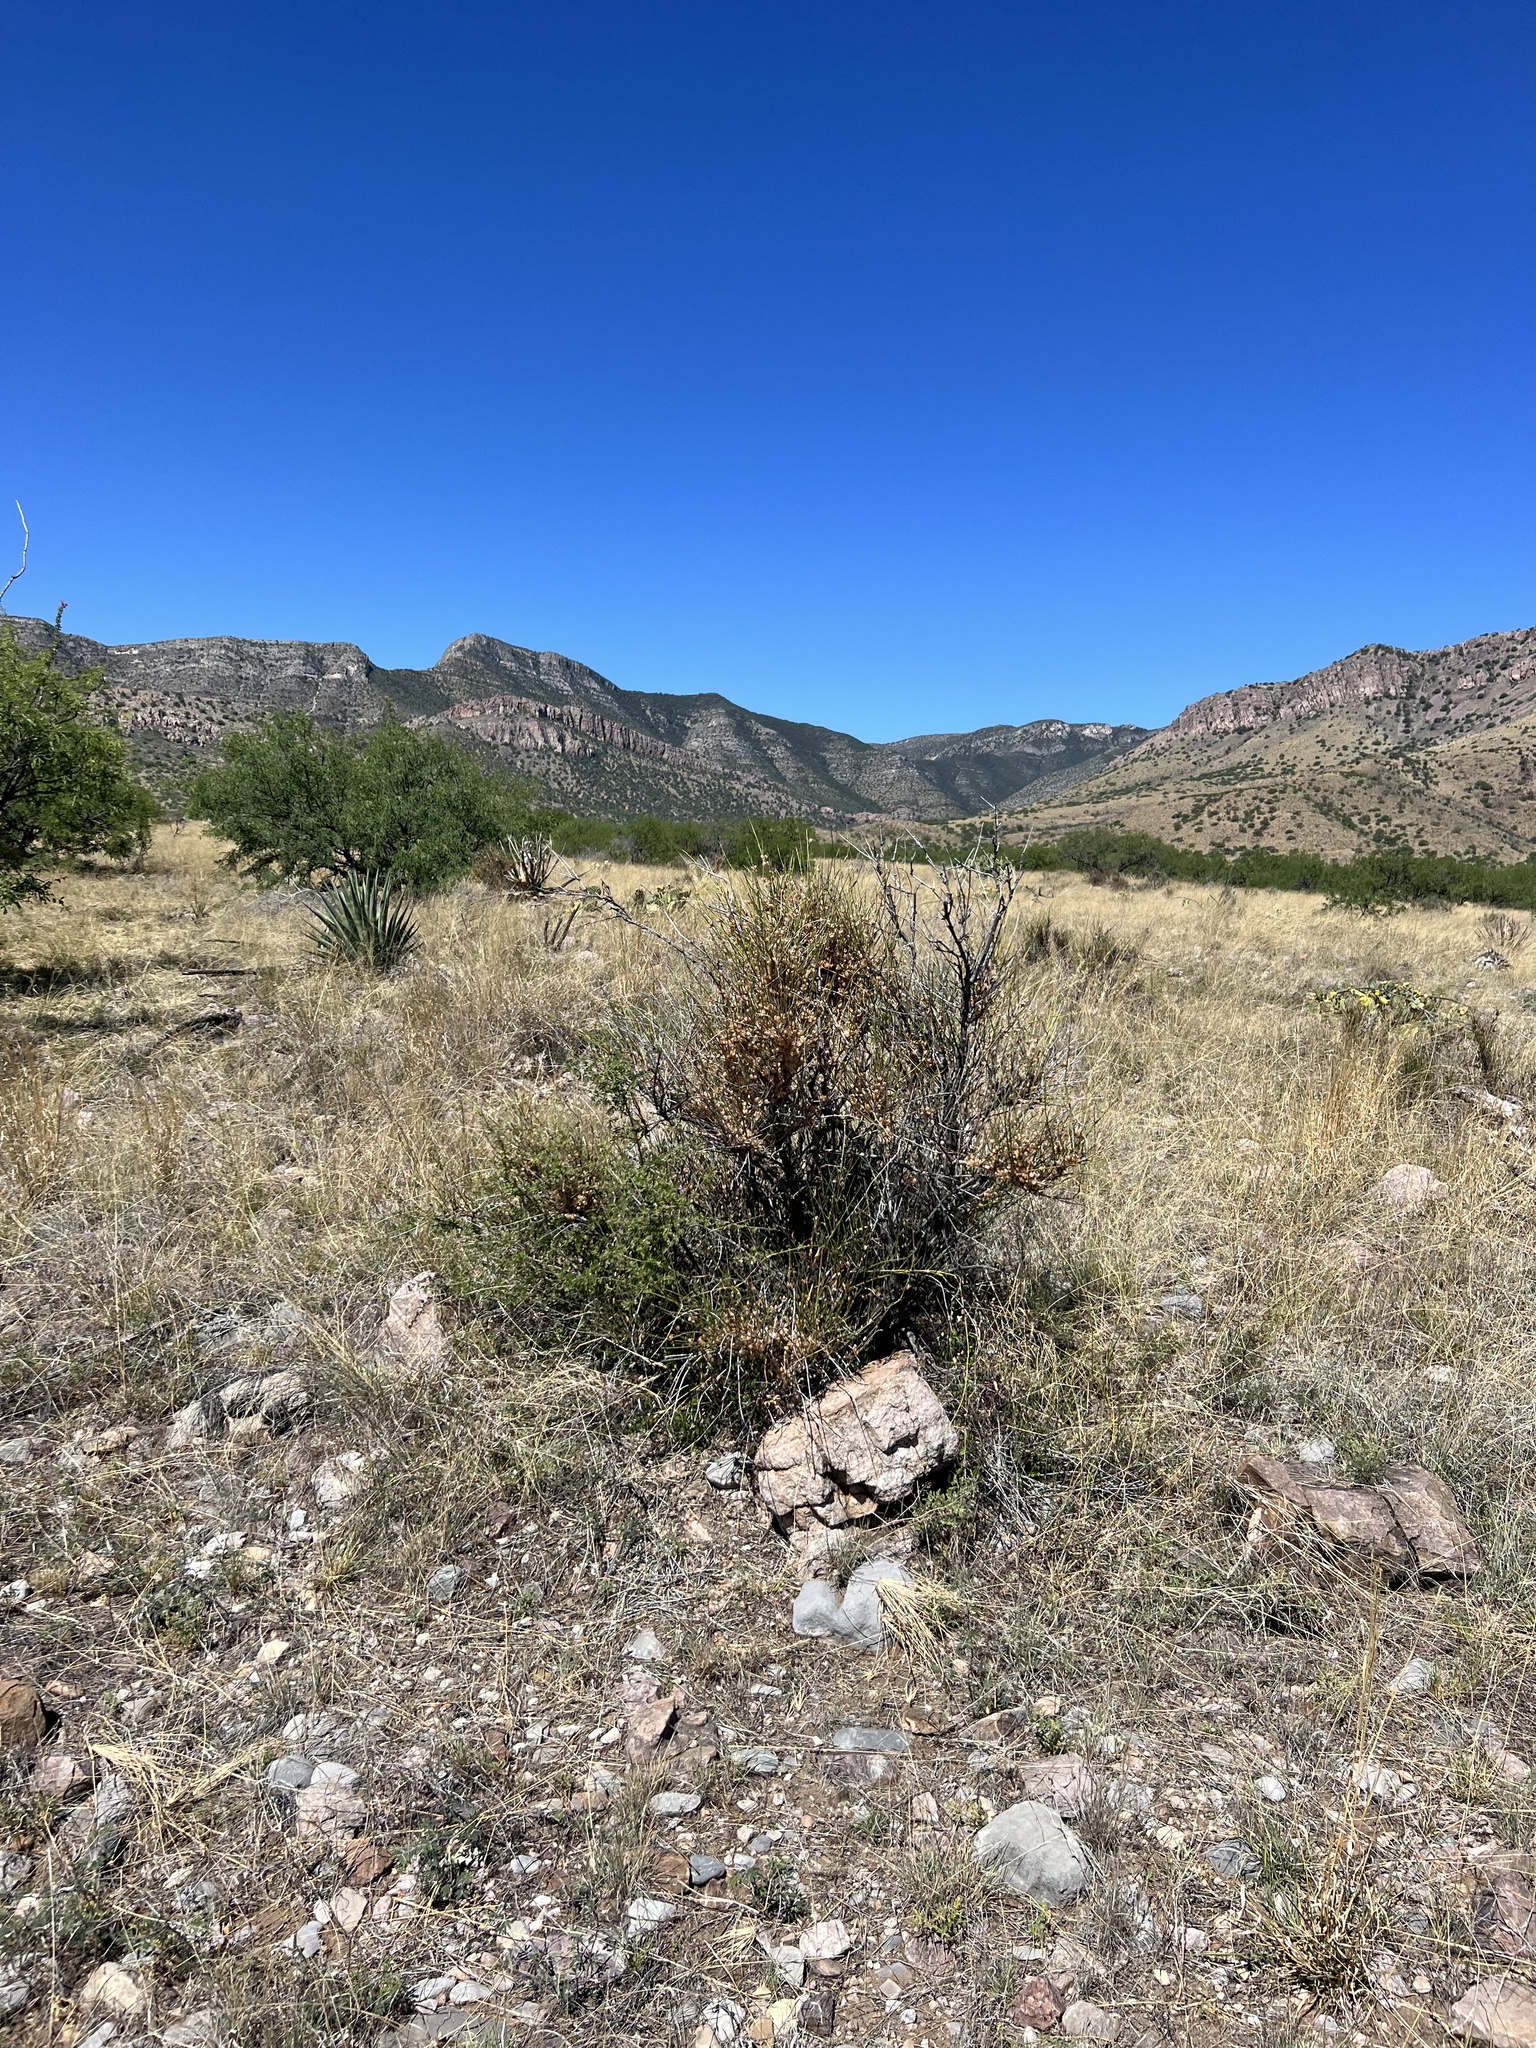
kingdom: Plantae
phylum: Tracheophyta
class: Gnetopsida
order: Ephedrales
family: Ephedraceae
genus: Ephedra
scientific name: Ephedra trifurca
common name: Mexican-tea
